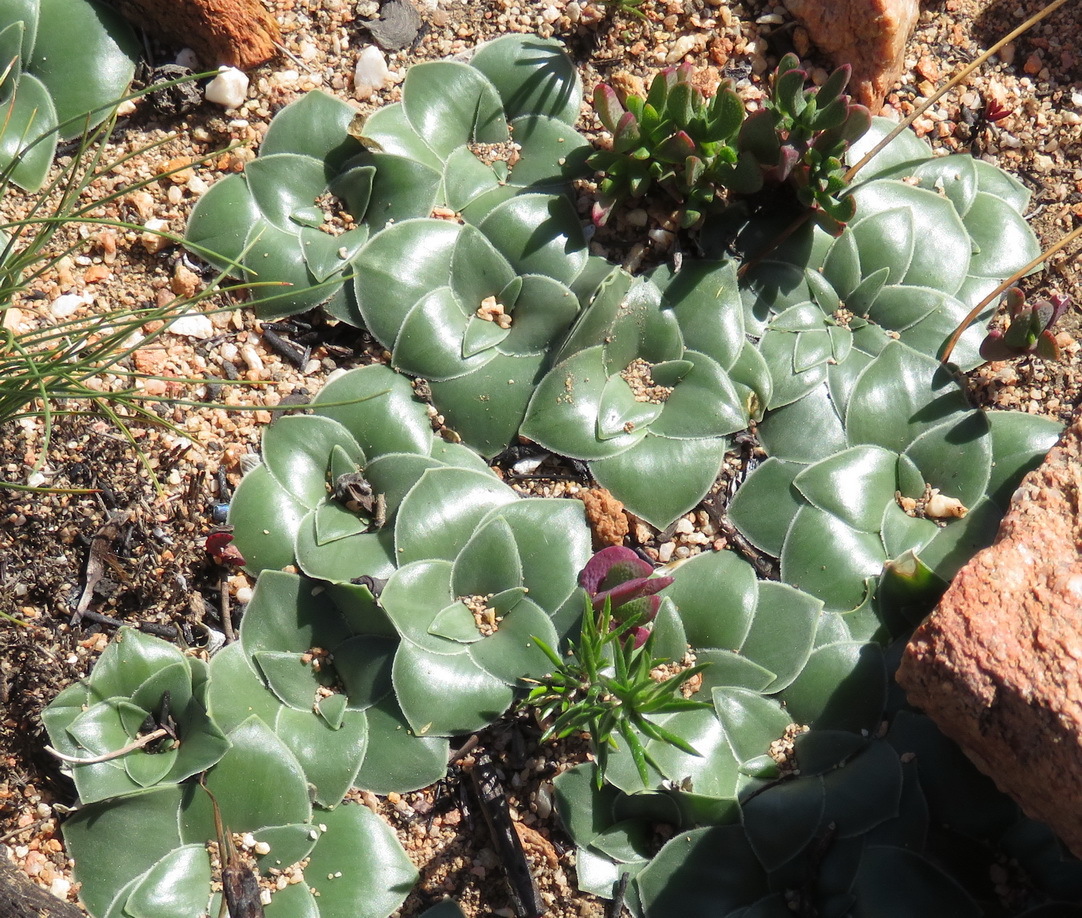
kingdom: Plantae
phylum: Tracheophyta
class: Liliopsida
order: Asparagales
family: Asparagaceae
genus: Drimia
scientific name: Drimia ciliata
